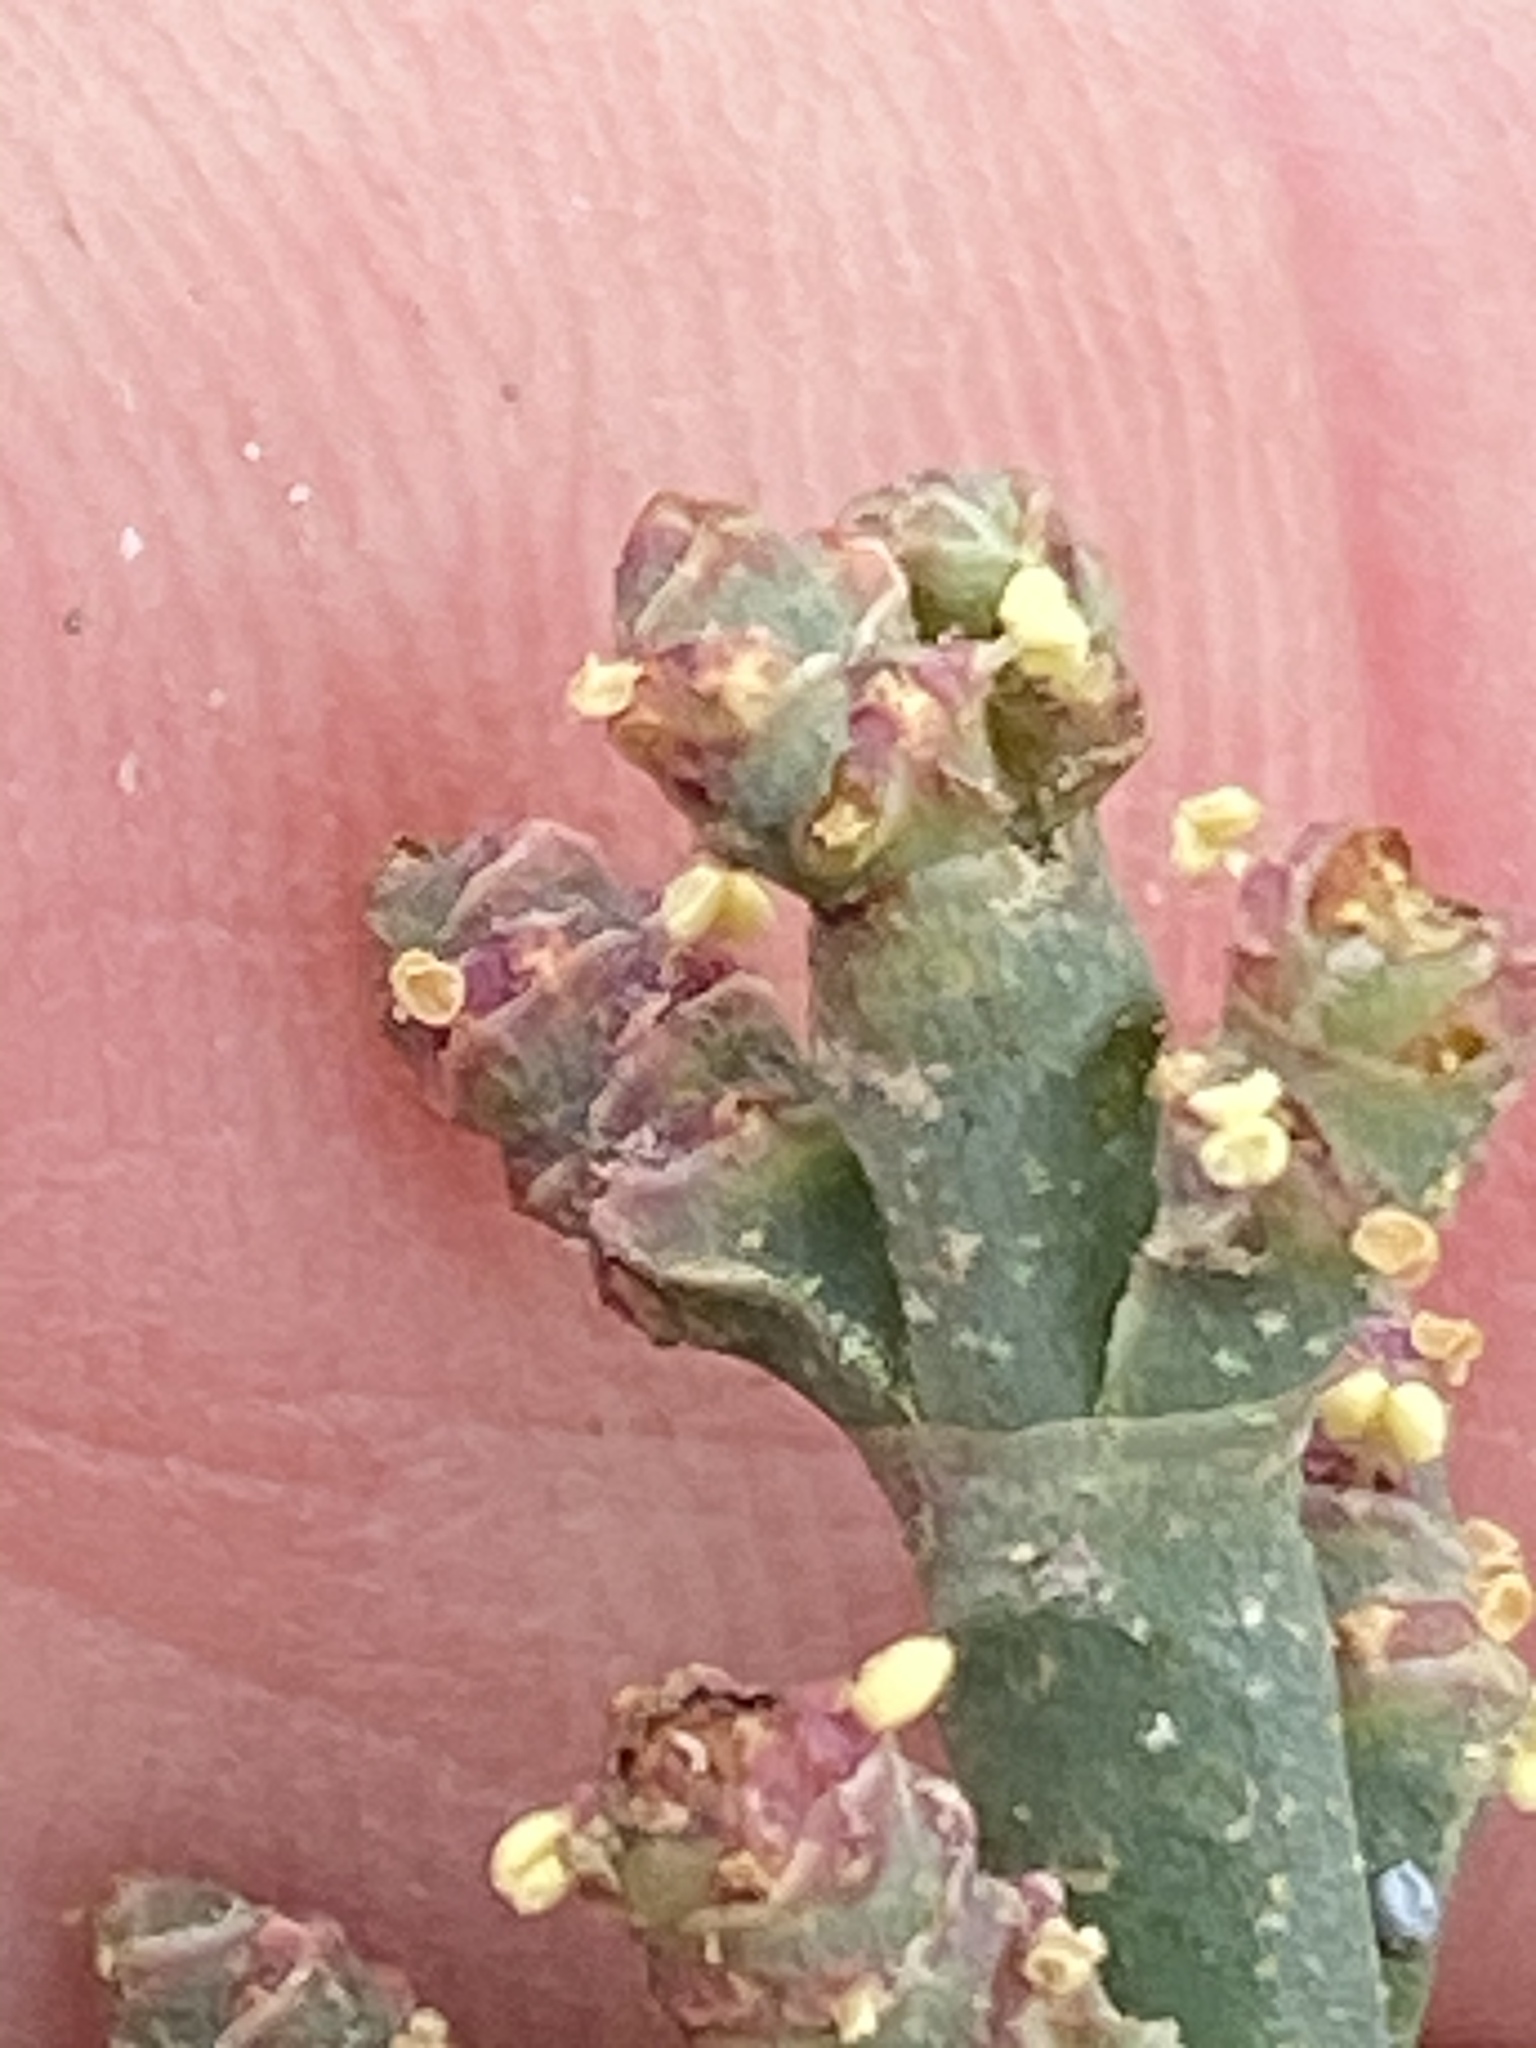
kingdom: Plantae
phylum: Tracheophyta
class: Magnoliopsida
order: Caryophyllales
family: Amaranthaceae
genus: Salicornia
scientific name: Salicornia pacifica
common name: Pacific glasswort
